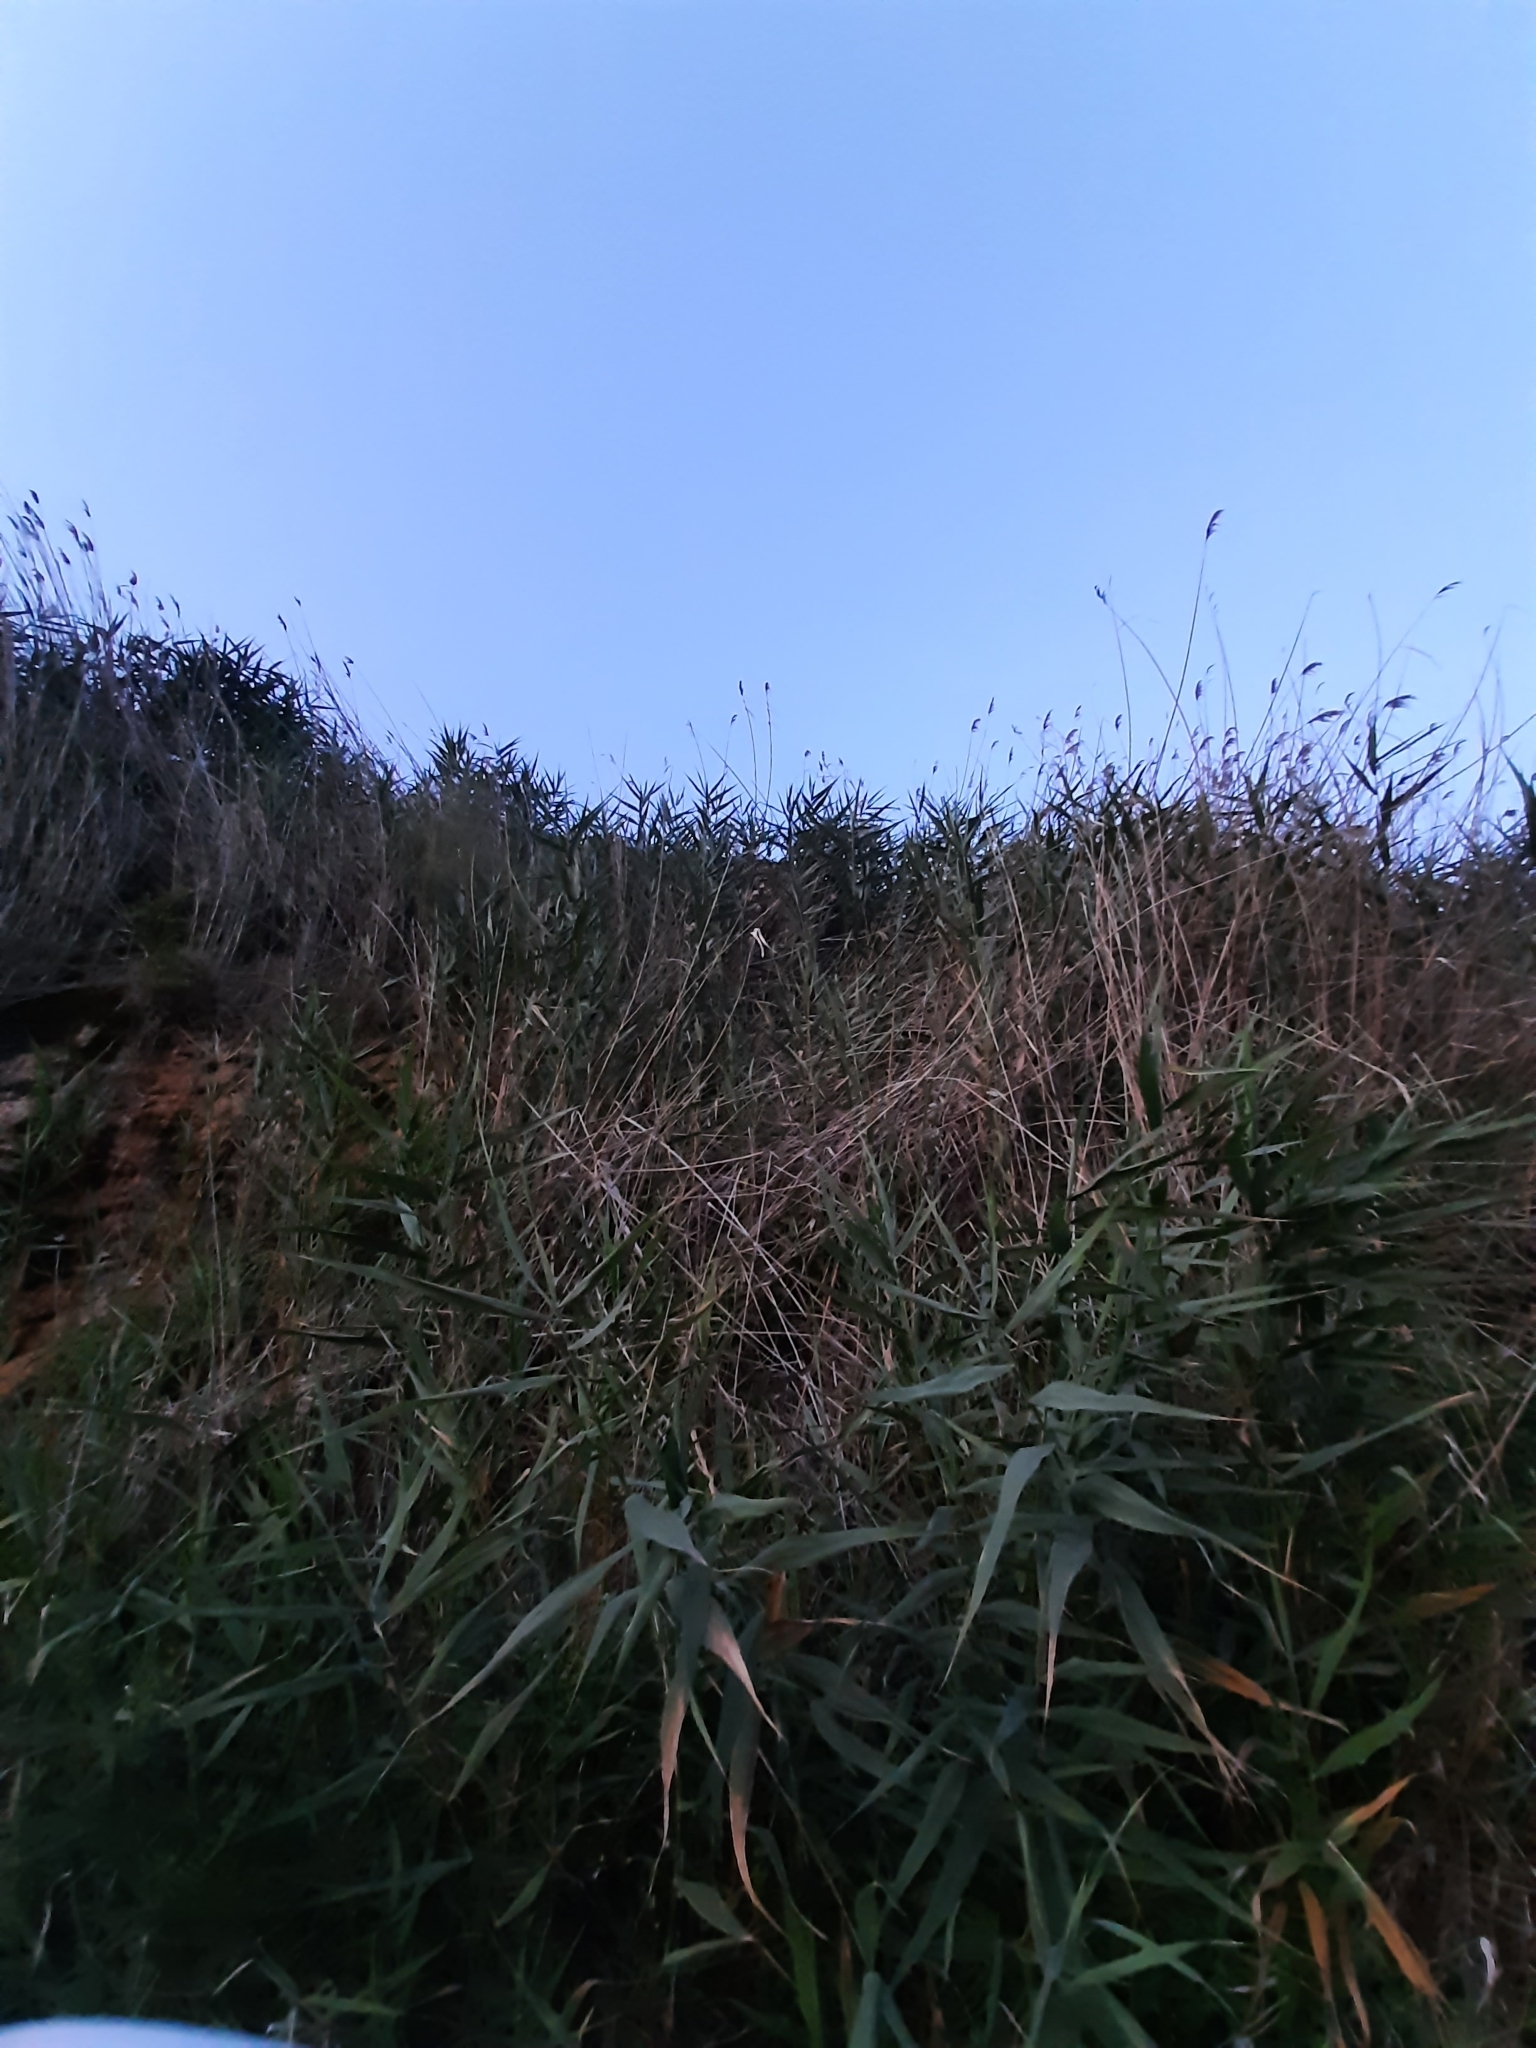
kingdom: Plantae
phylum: Tracheophyta
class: Liliopsida
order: Poales
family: Poaceae
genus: Phragmites
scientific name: Phragmites australis
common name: Common reed
